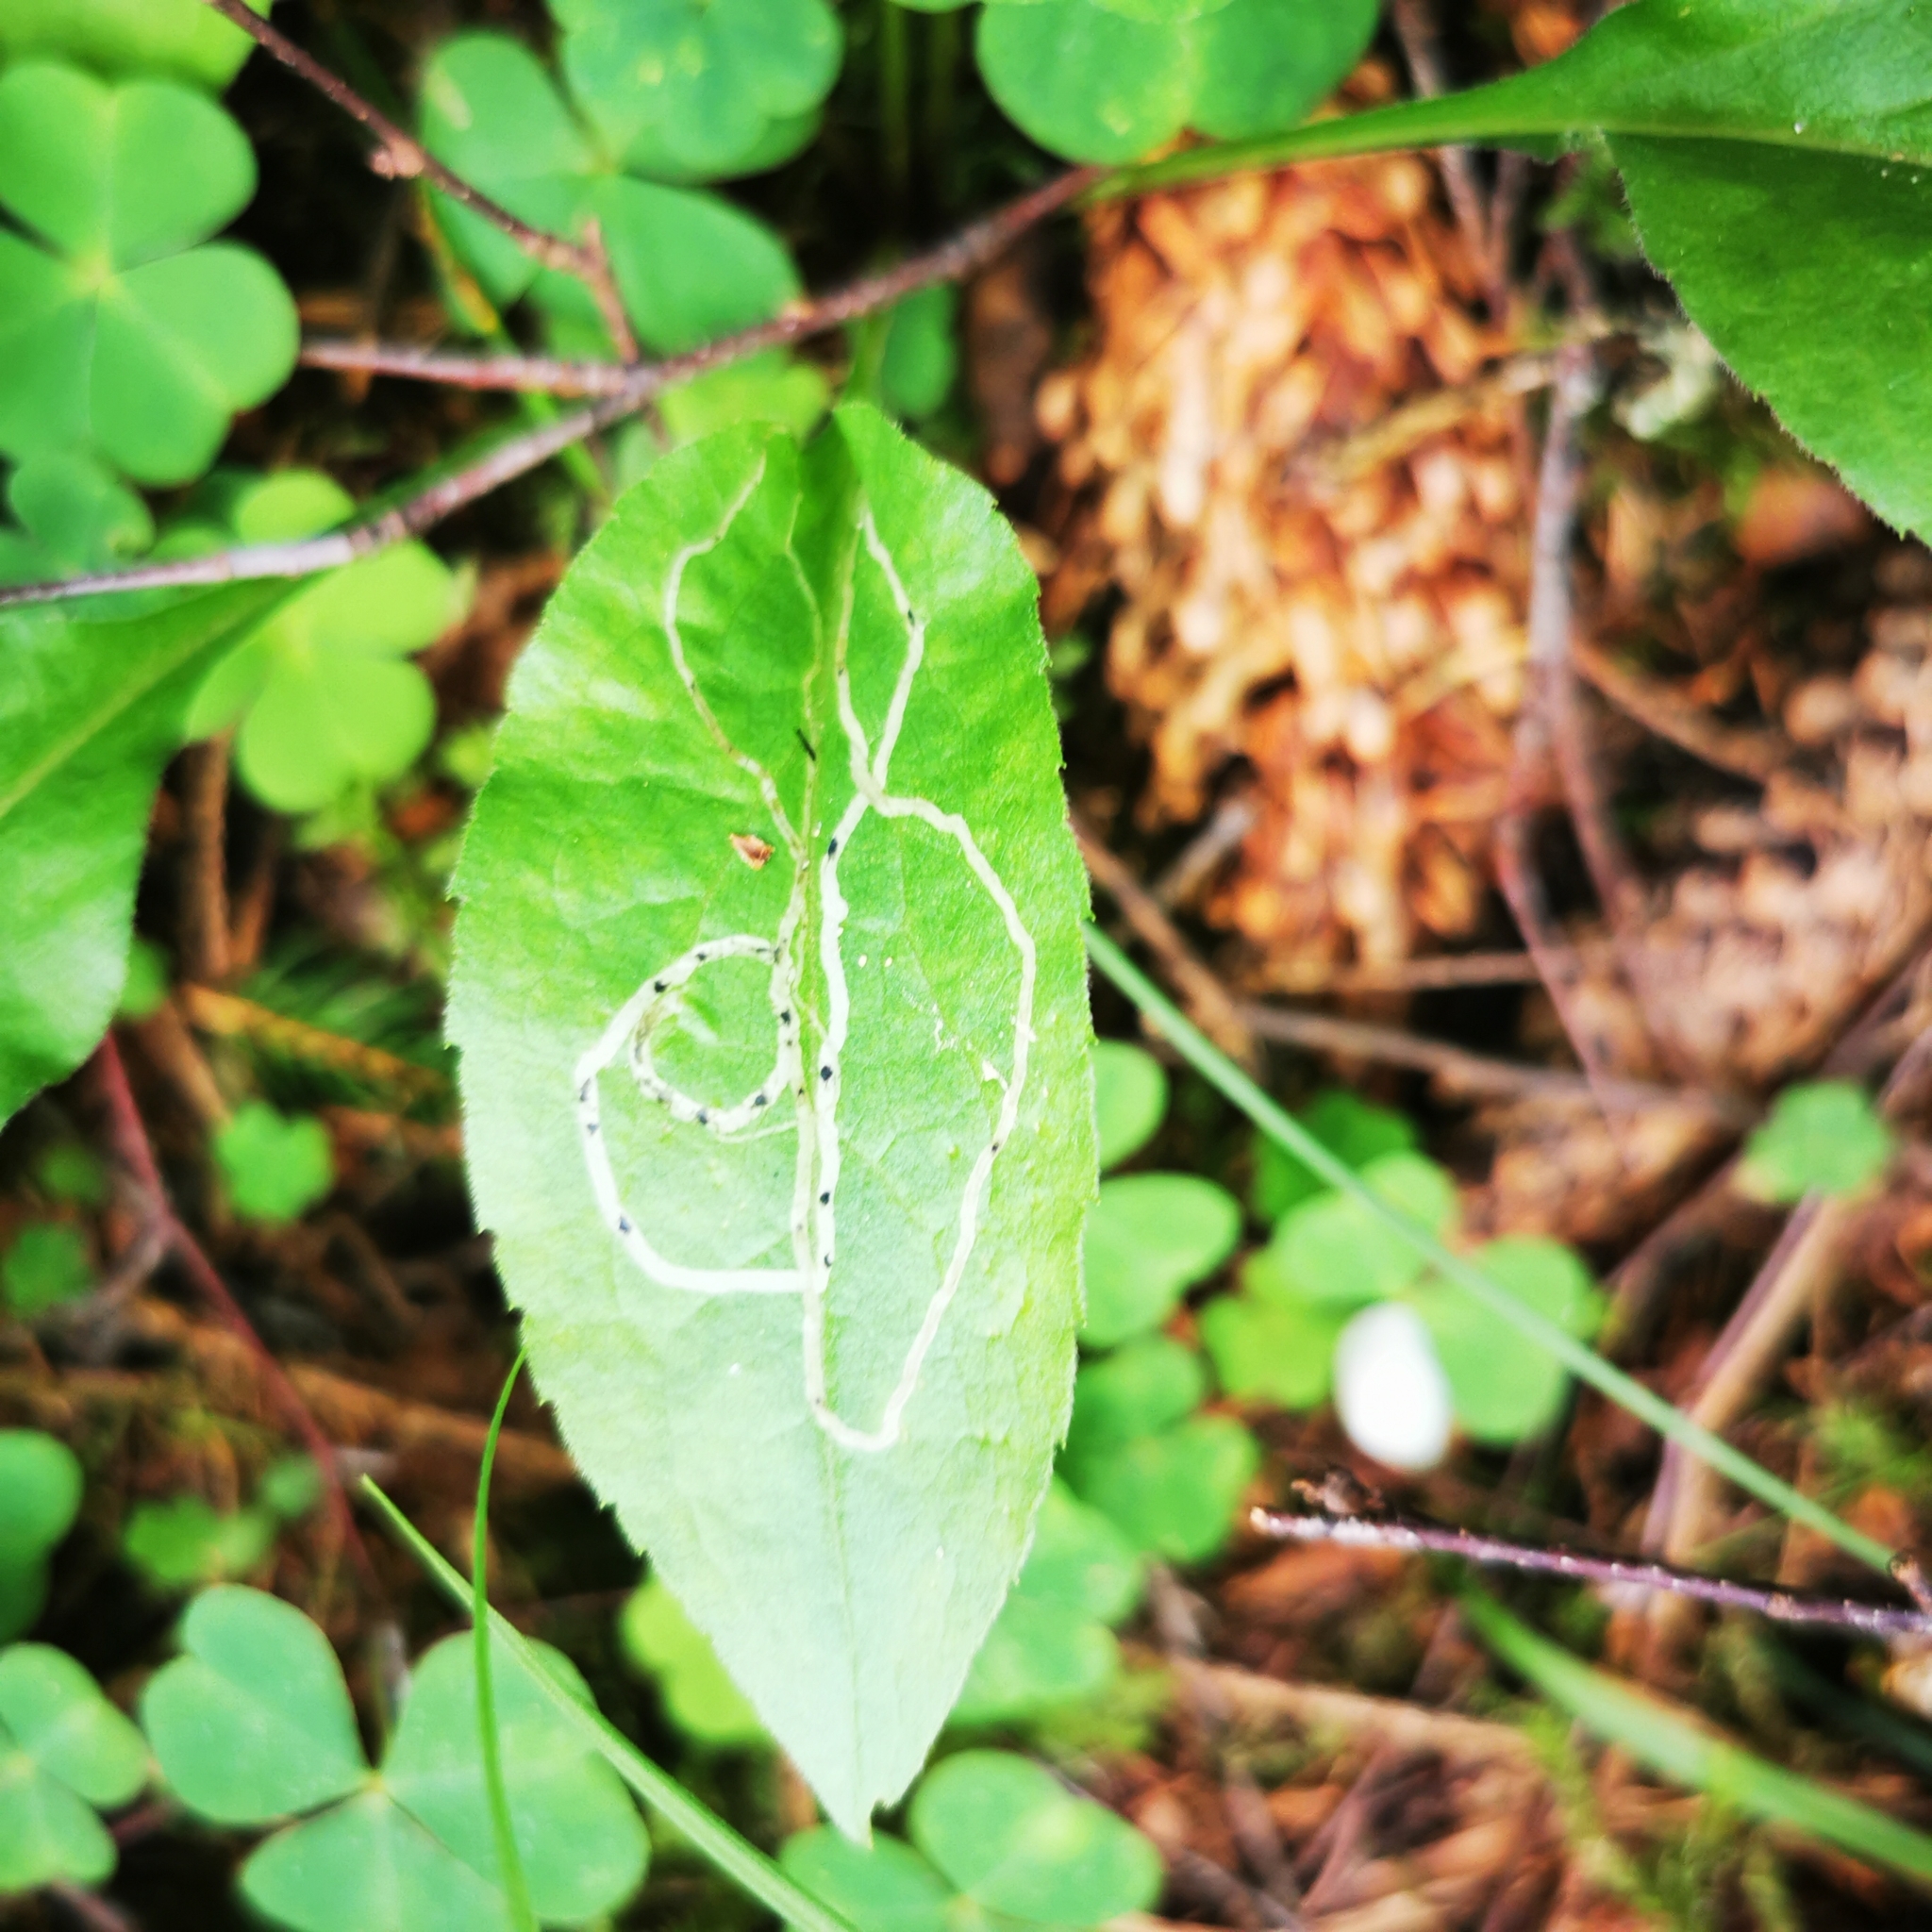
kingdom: Animalia
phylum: Arthropoda
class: Insecta
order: Diptera
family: Agromyzidae
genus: Ophiomyia
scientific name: Ophiomyia maura
